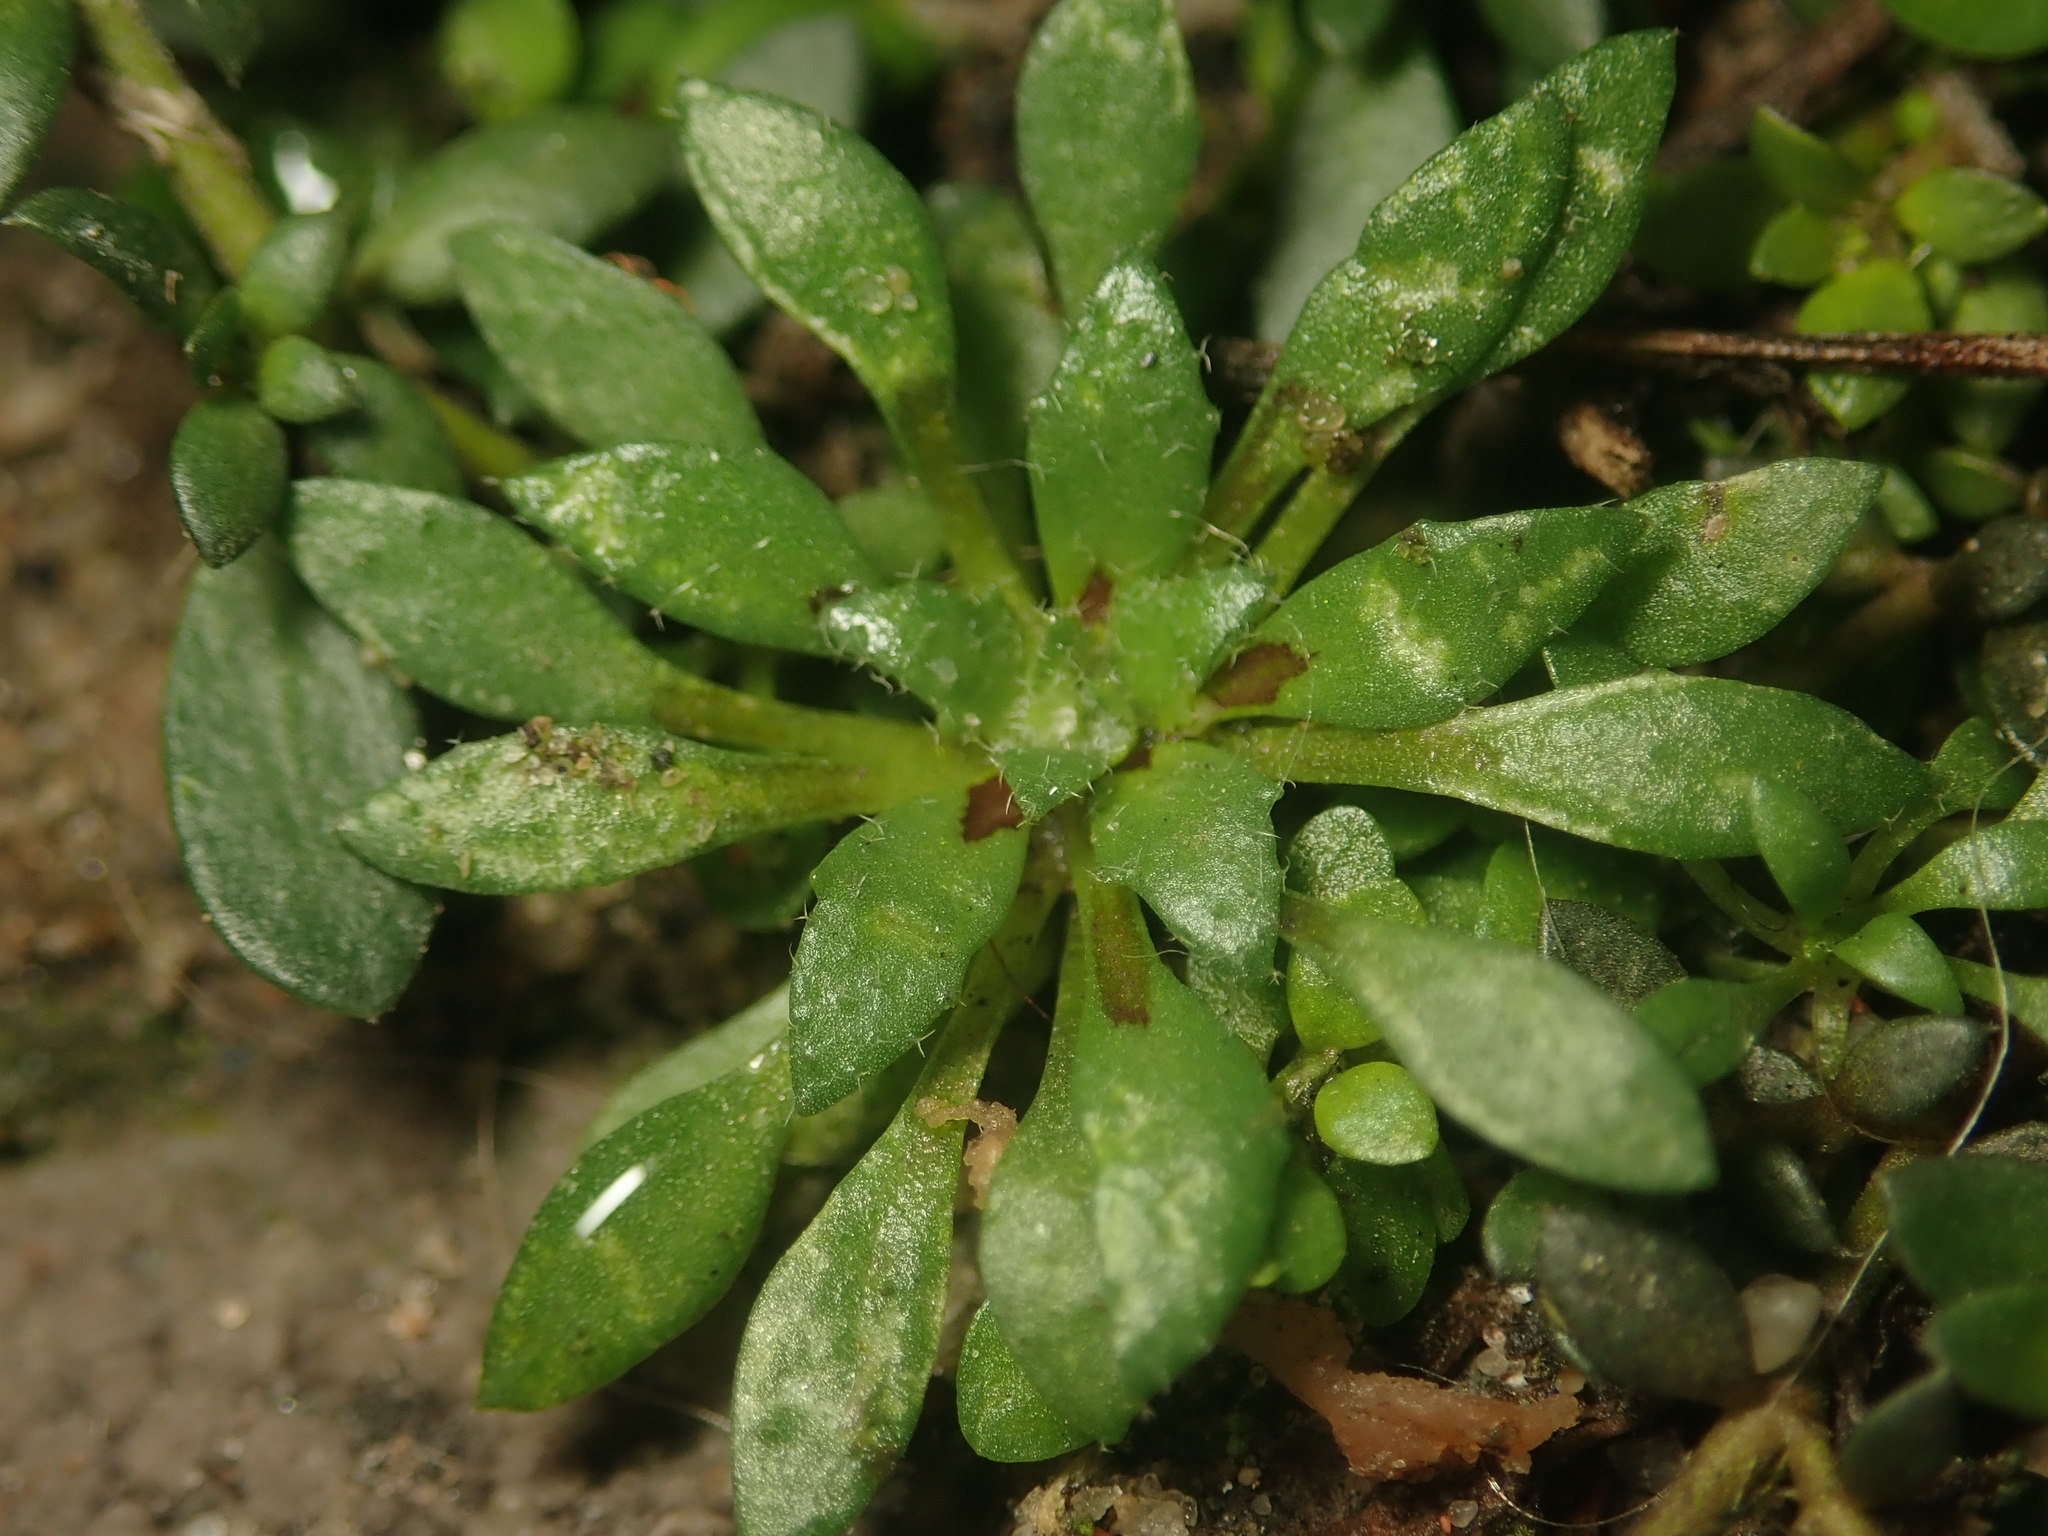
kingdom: Plantae
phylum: Tracheophyta
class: Magnoliopsida
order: Brassicales
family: Brassicaceae
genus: Draba
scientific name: Draba verna
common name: Spring draba
